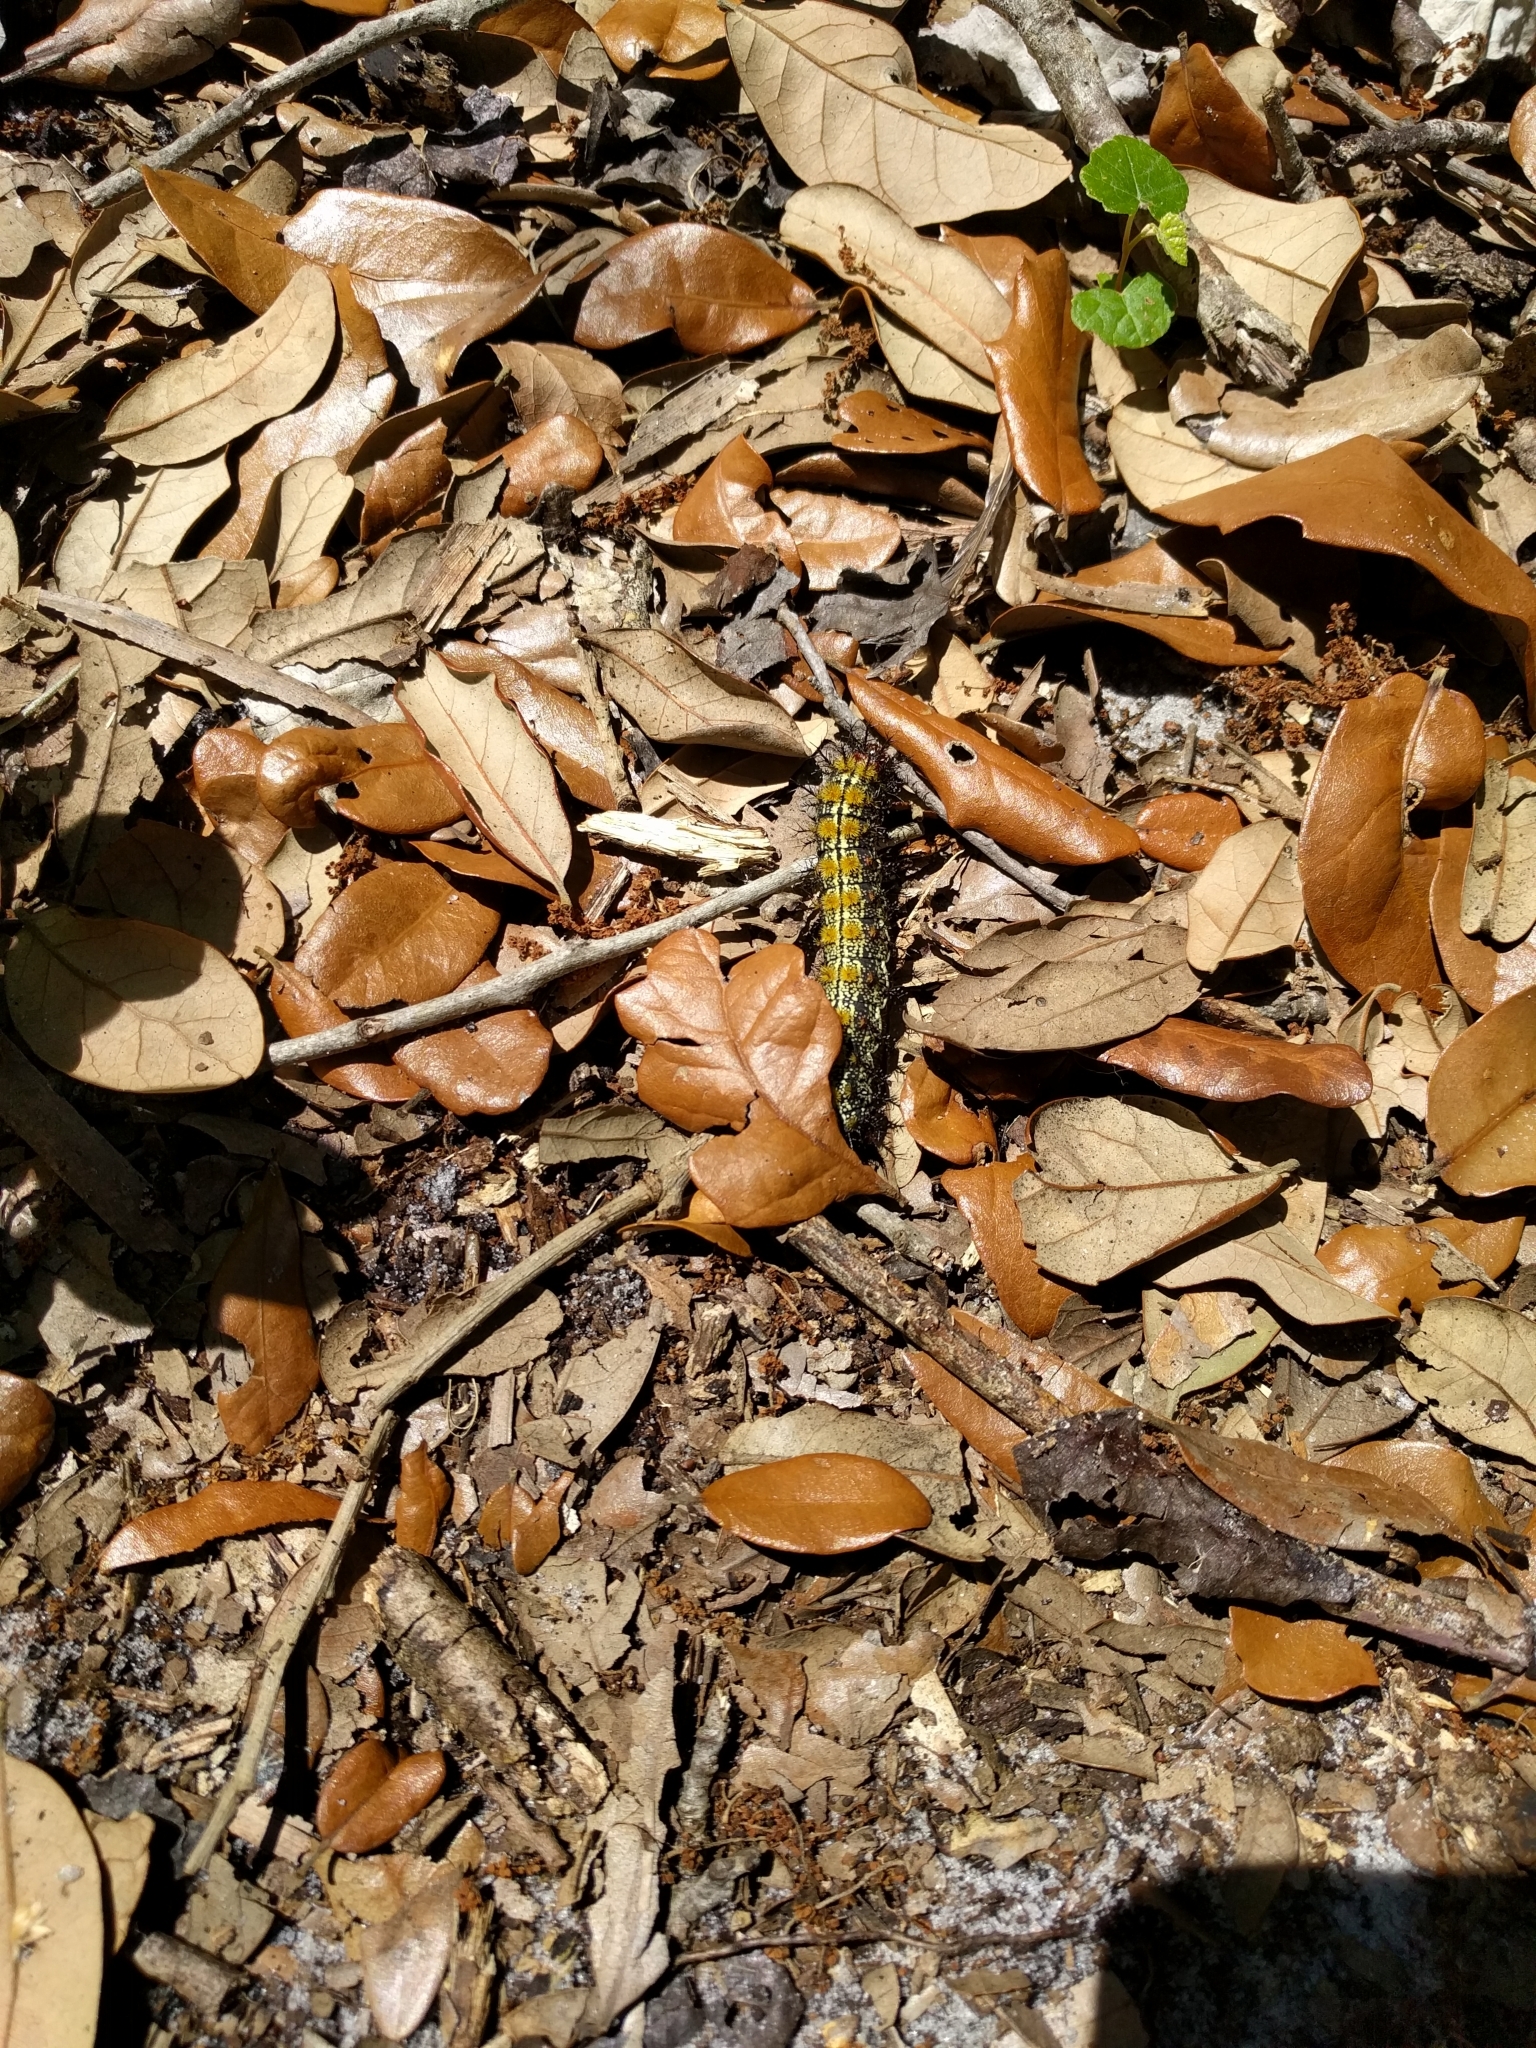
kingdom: Animalia
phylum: Arthropoda
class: Insecta
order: Lepidoptera
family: Saturniidae
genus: Hemileuca
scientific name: Hemileuca maia
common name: Eastern buckmoth
